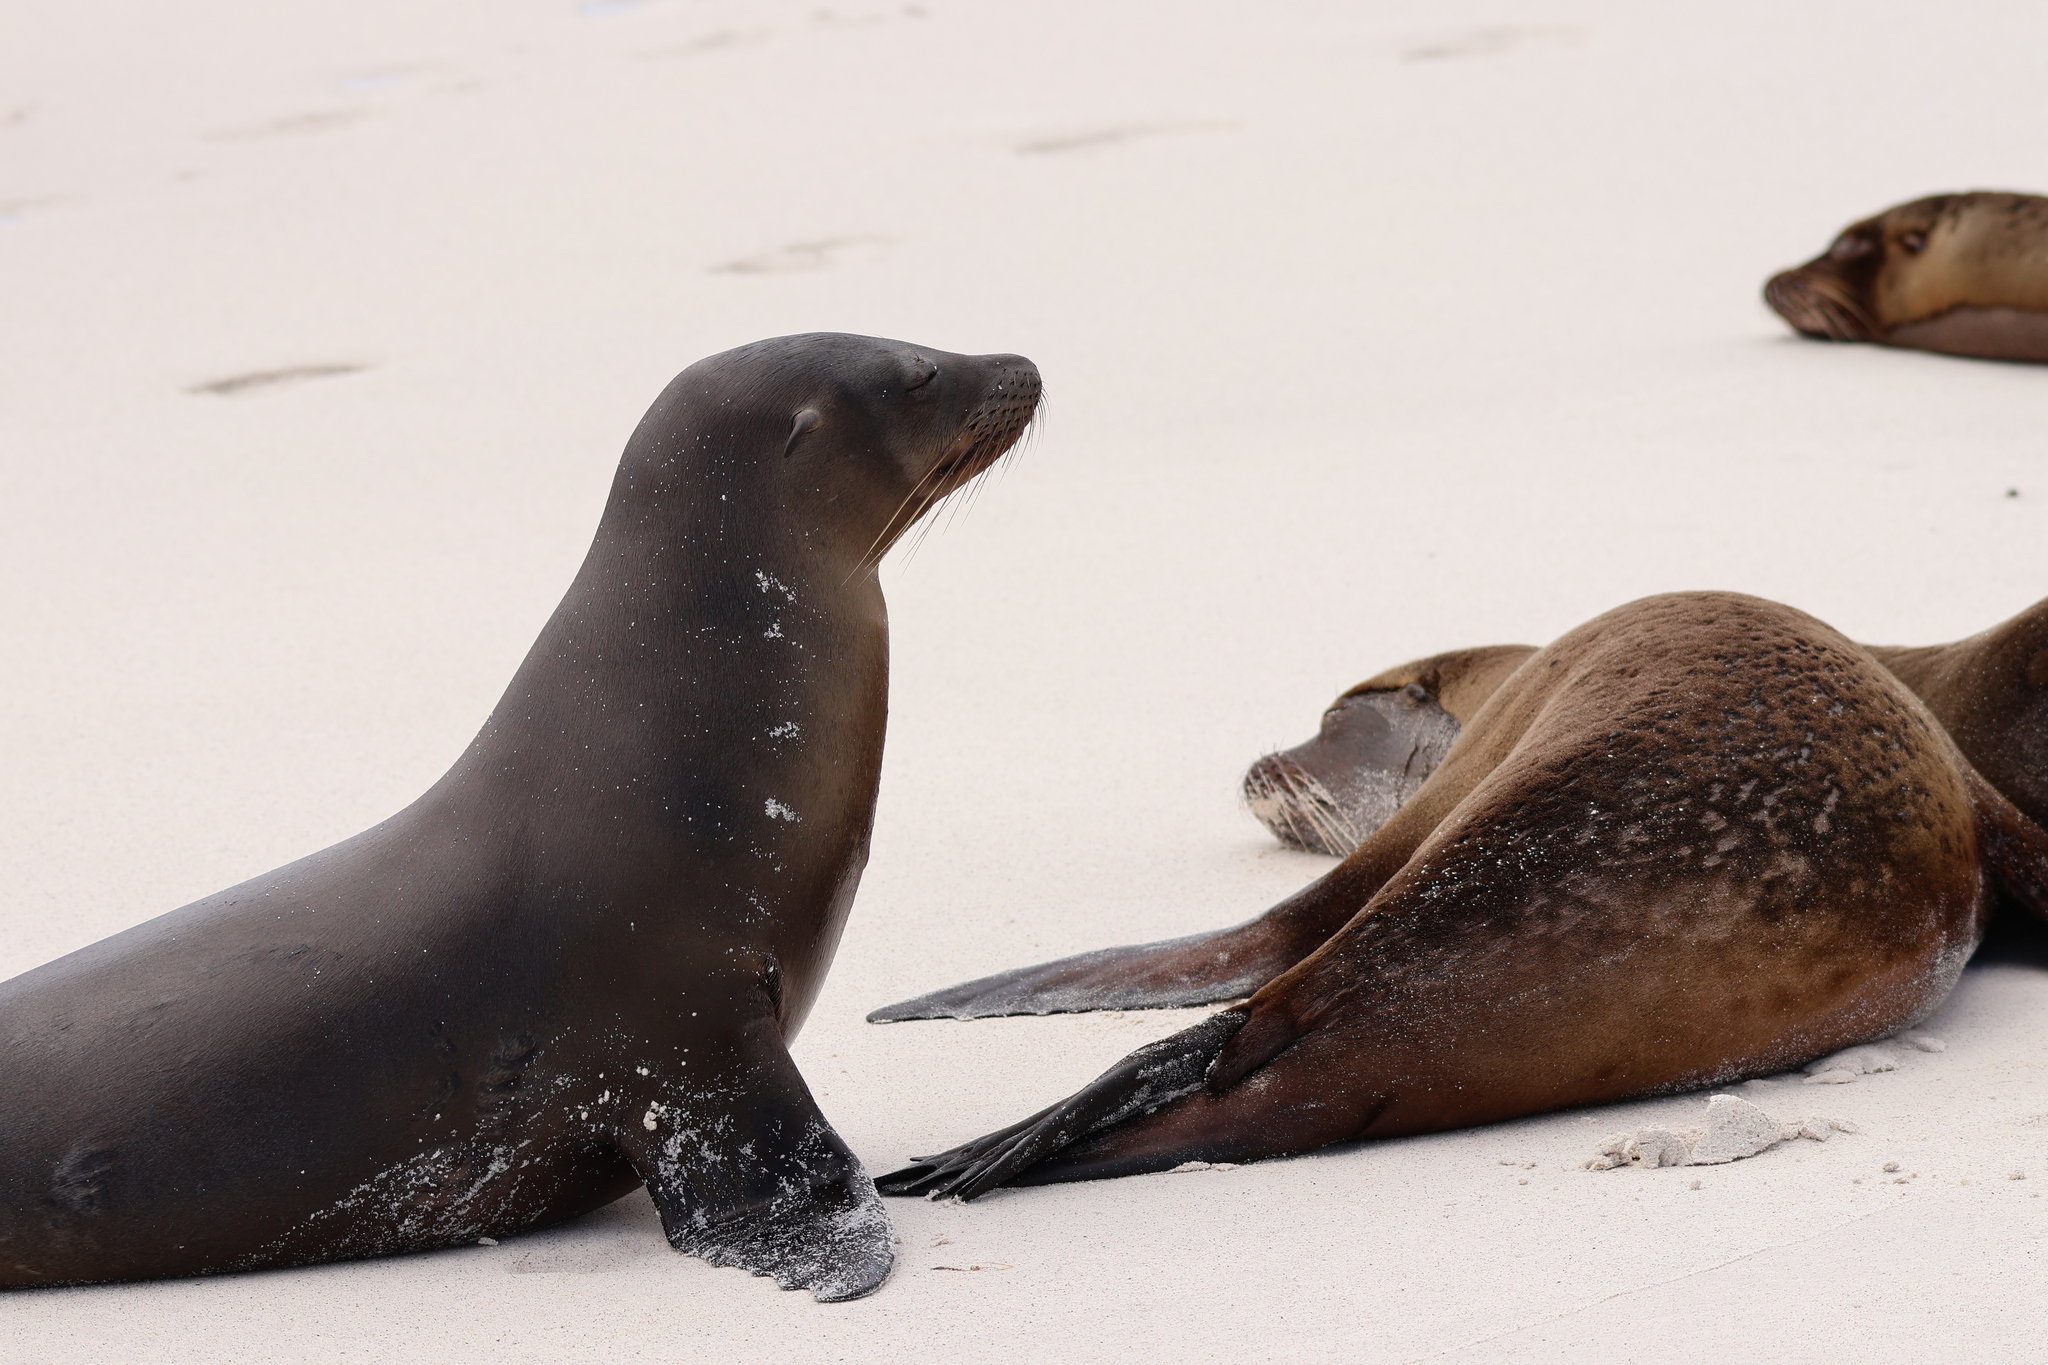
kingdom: Animalia
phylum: Chordata
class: Mammalia
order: Carnivora
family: Otariidae
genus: Zalophus
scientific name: Zalophus wollebaeki
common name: Galapagos sea lion
